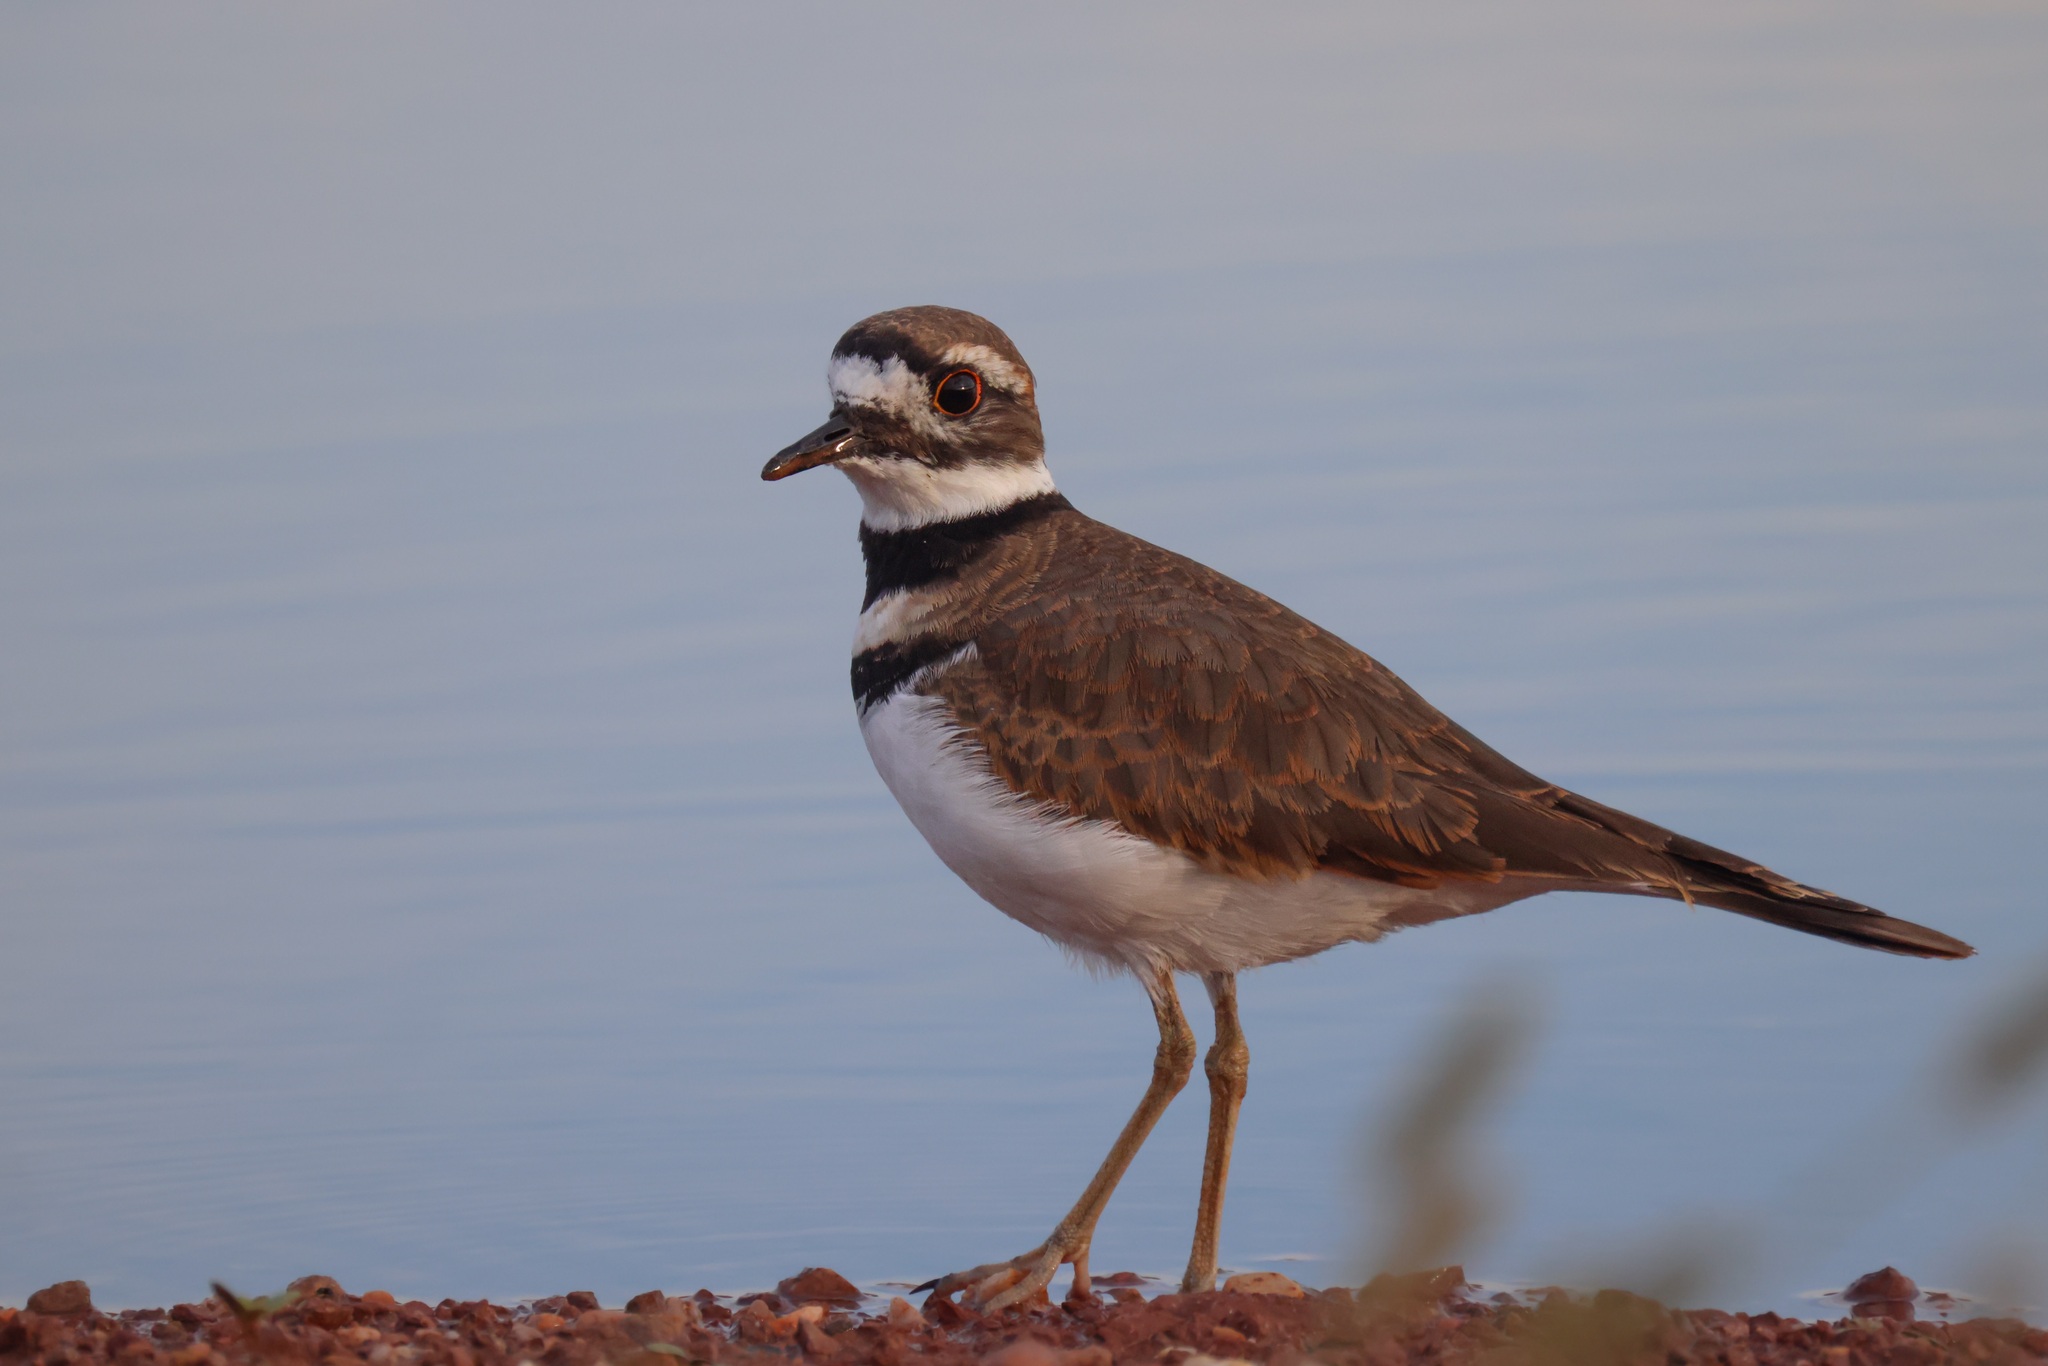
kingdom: Animalia
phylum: Chordata
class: Aves
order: Charadriiformes
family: Charadriidae
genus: Charadrius
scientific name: Charadrius vociferus
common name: Killdeer
